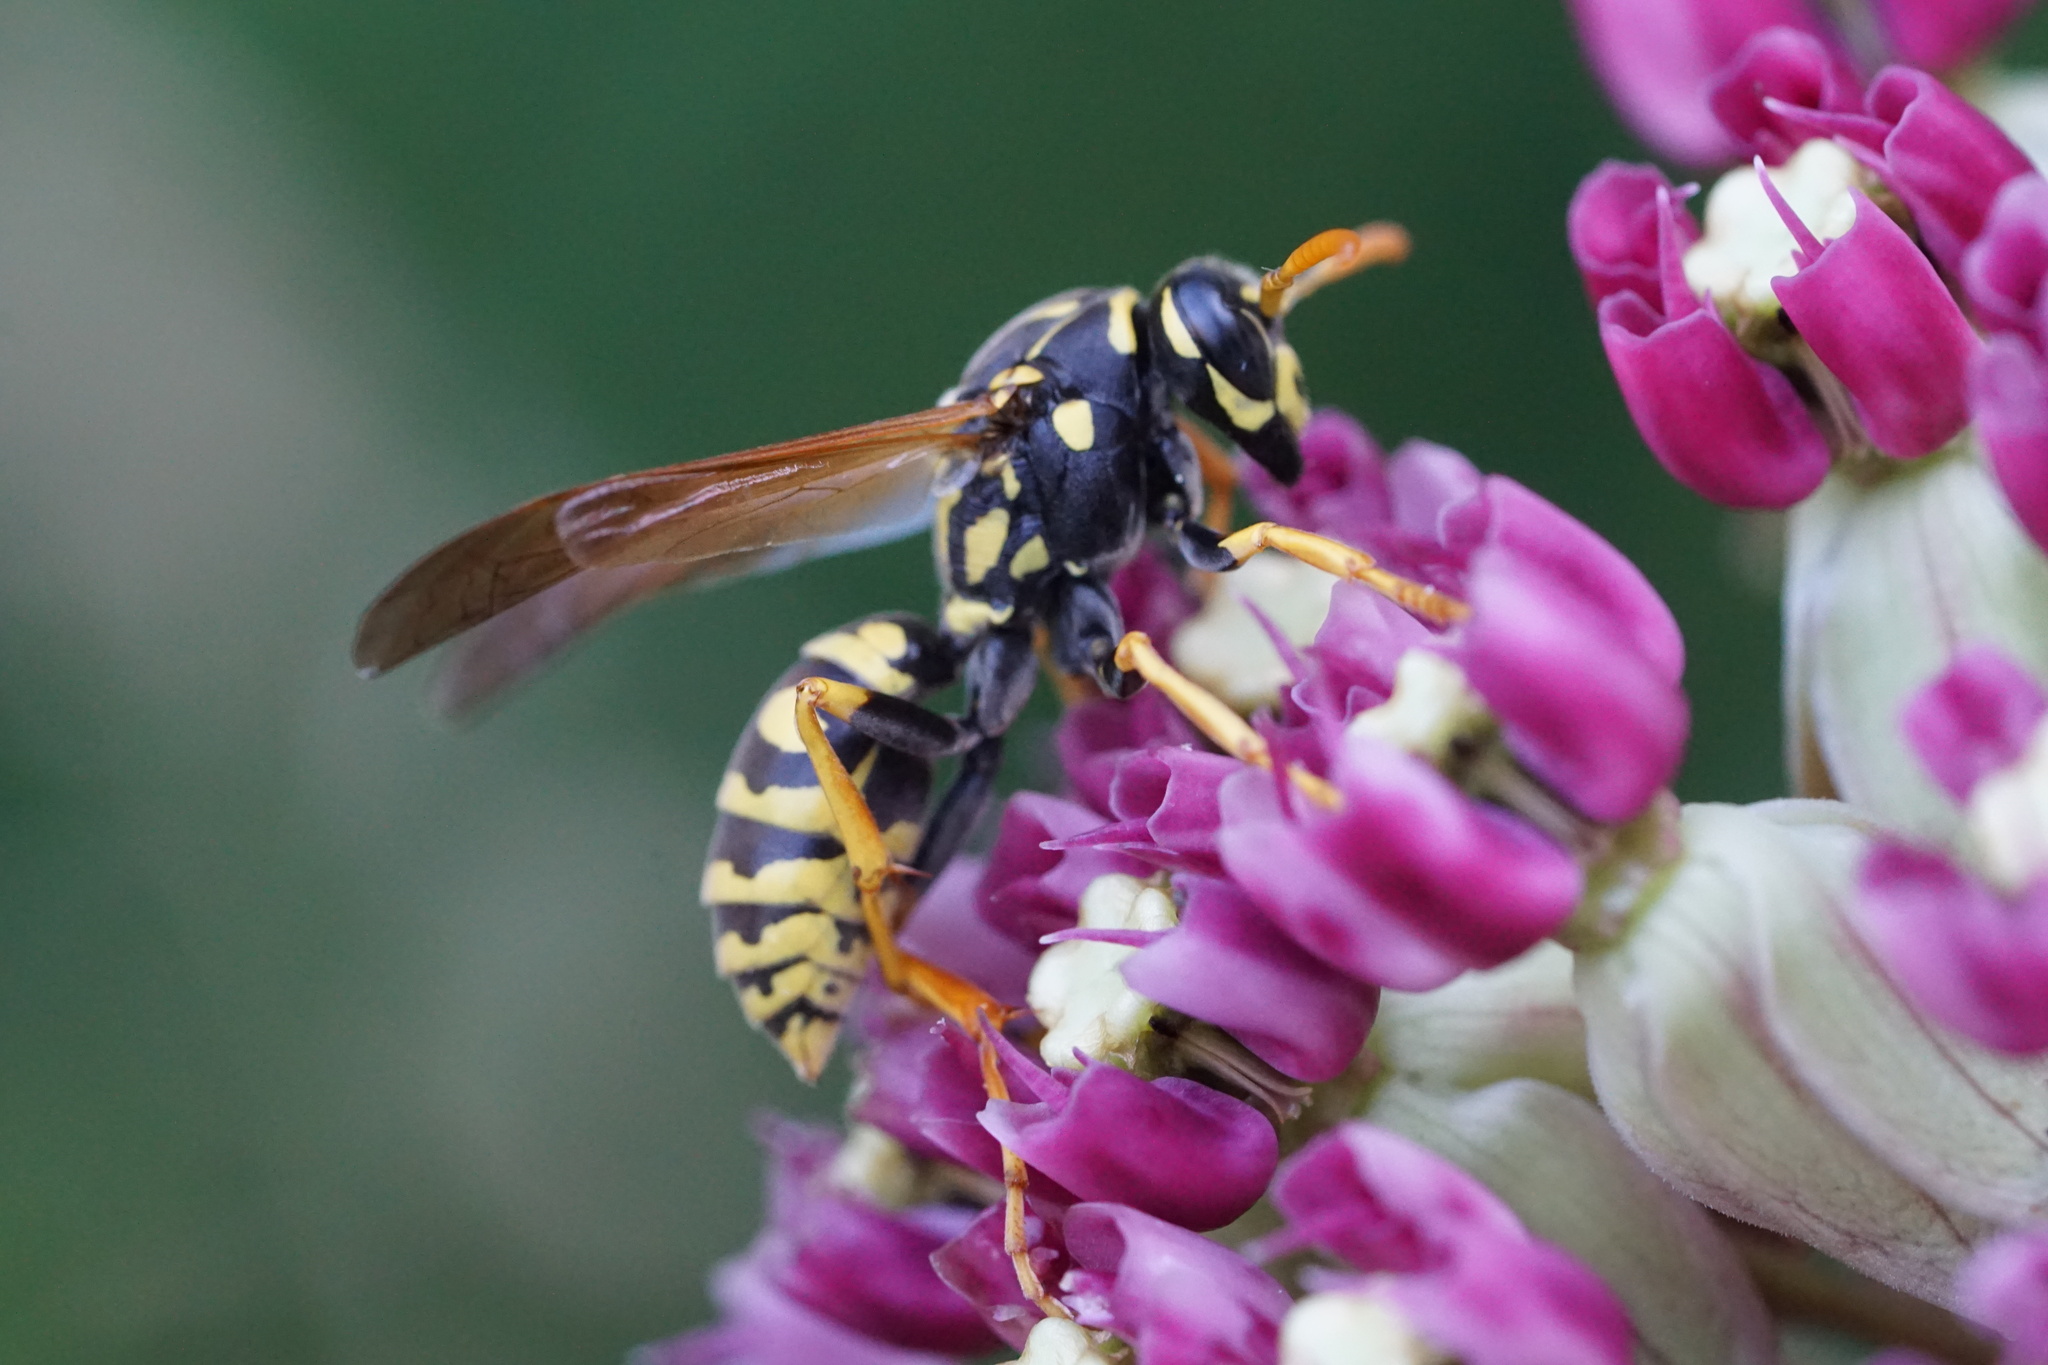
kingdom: Animalia
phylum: Arthropoda
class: Insecta
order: Hymenoptera
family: Eumenidae
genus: Polistes
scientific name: Polistes dominula
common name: Paper wasp
